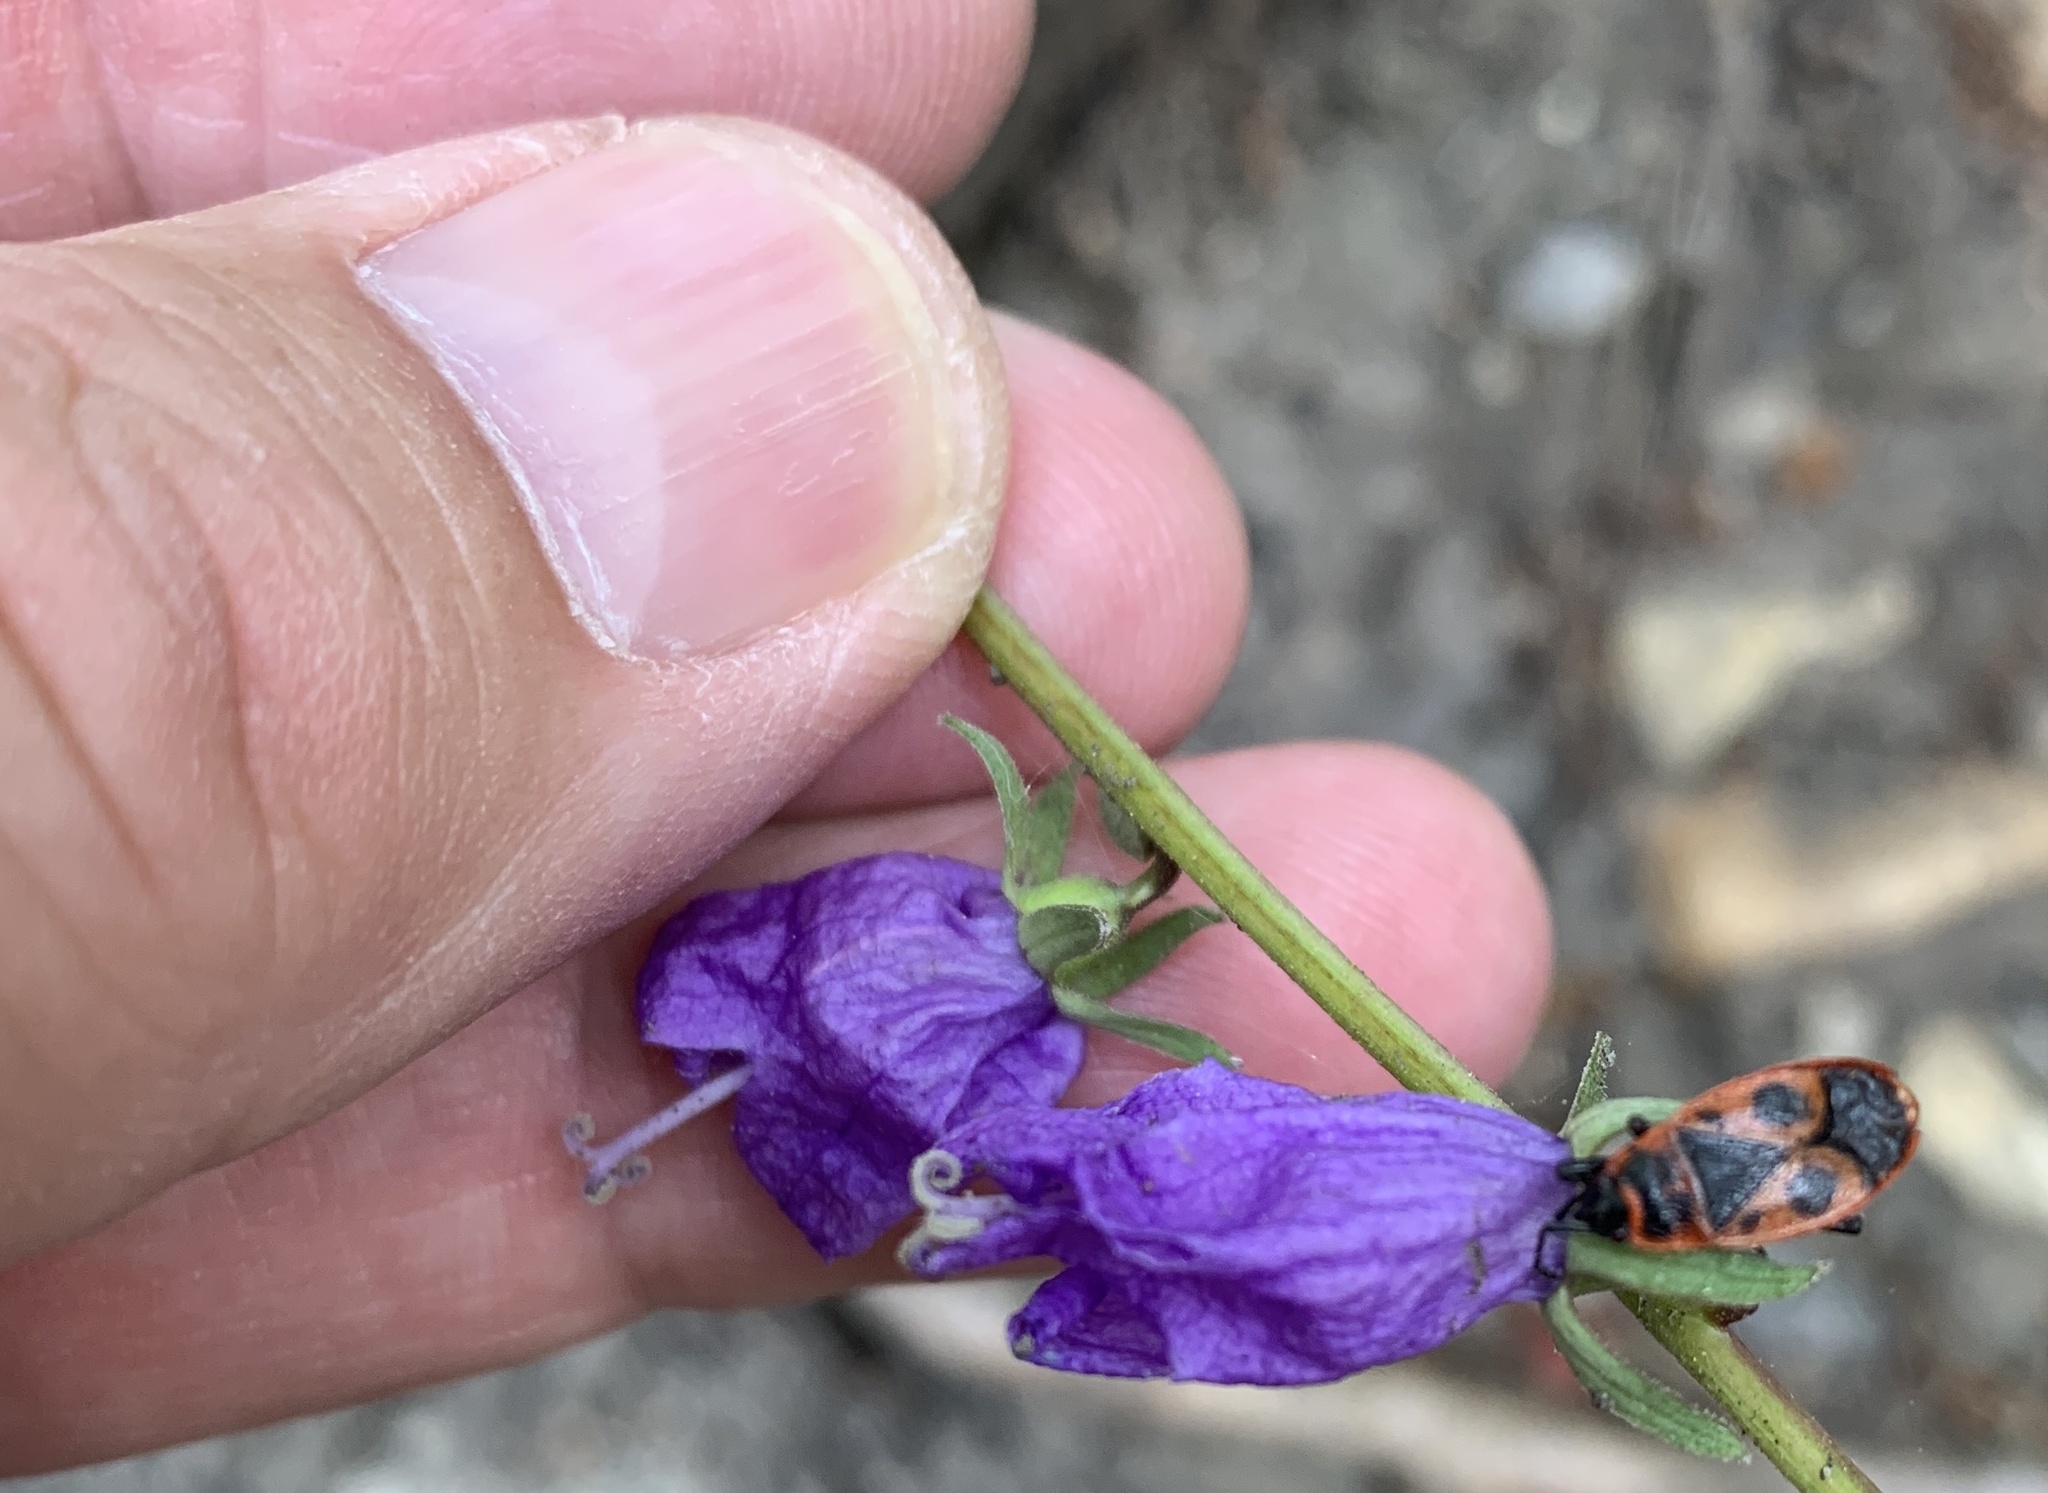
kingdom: Animalia
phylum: Arthropoda
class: Insecta
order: Hemiptera
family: Pyrrhocoridae
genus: Pyrrhocoris
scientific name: Pyrrhocoris apterus
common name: Firebug
